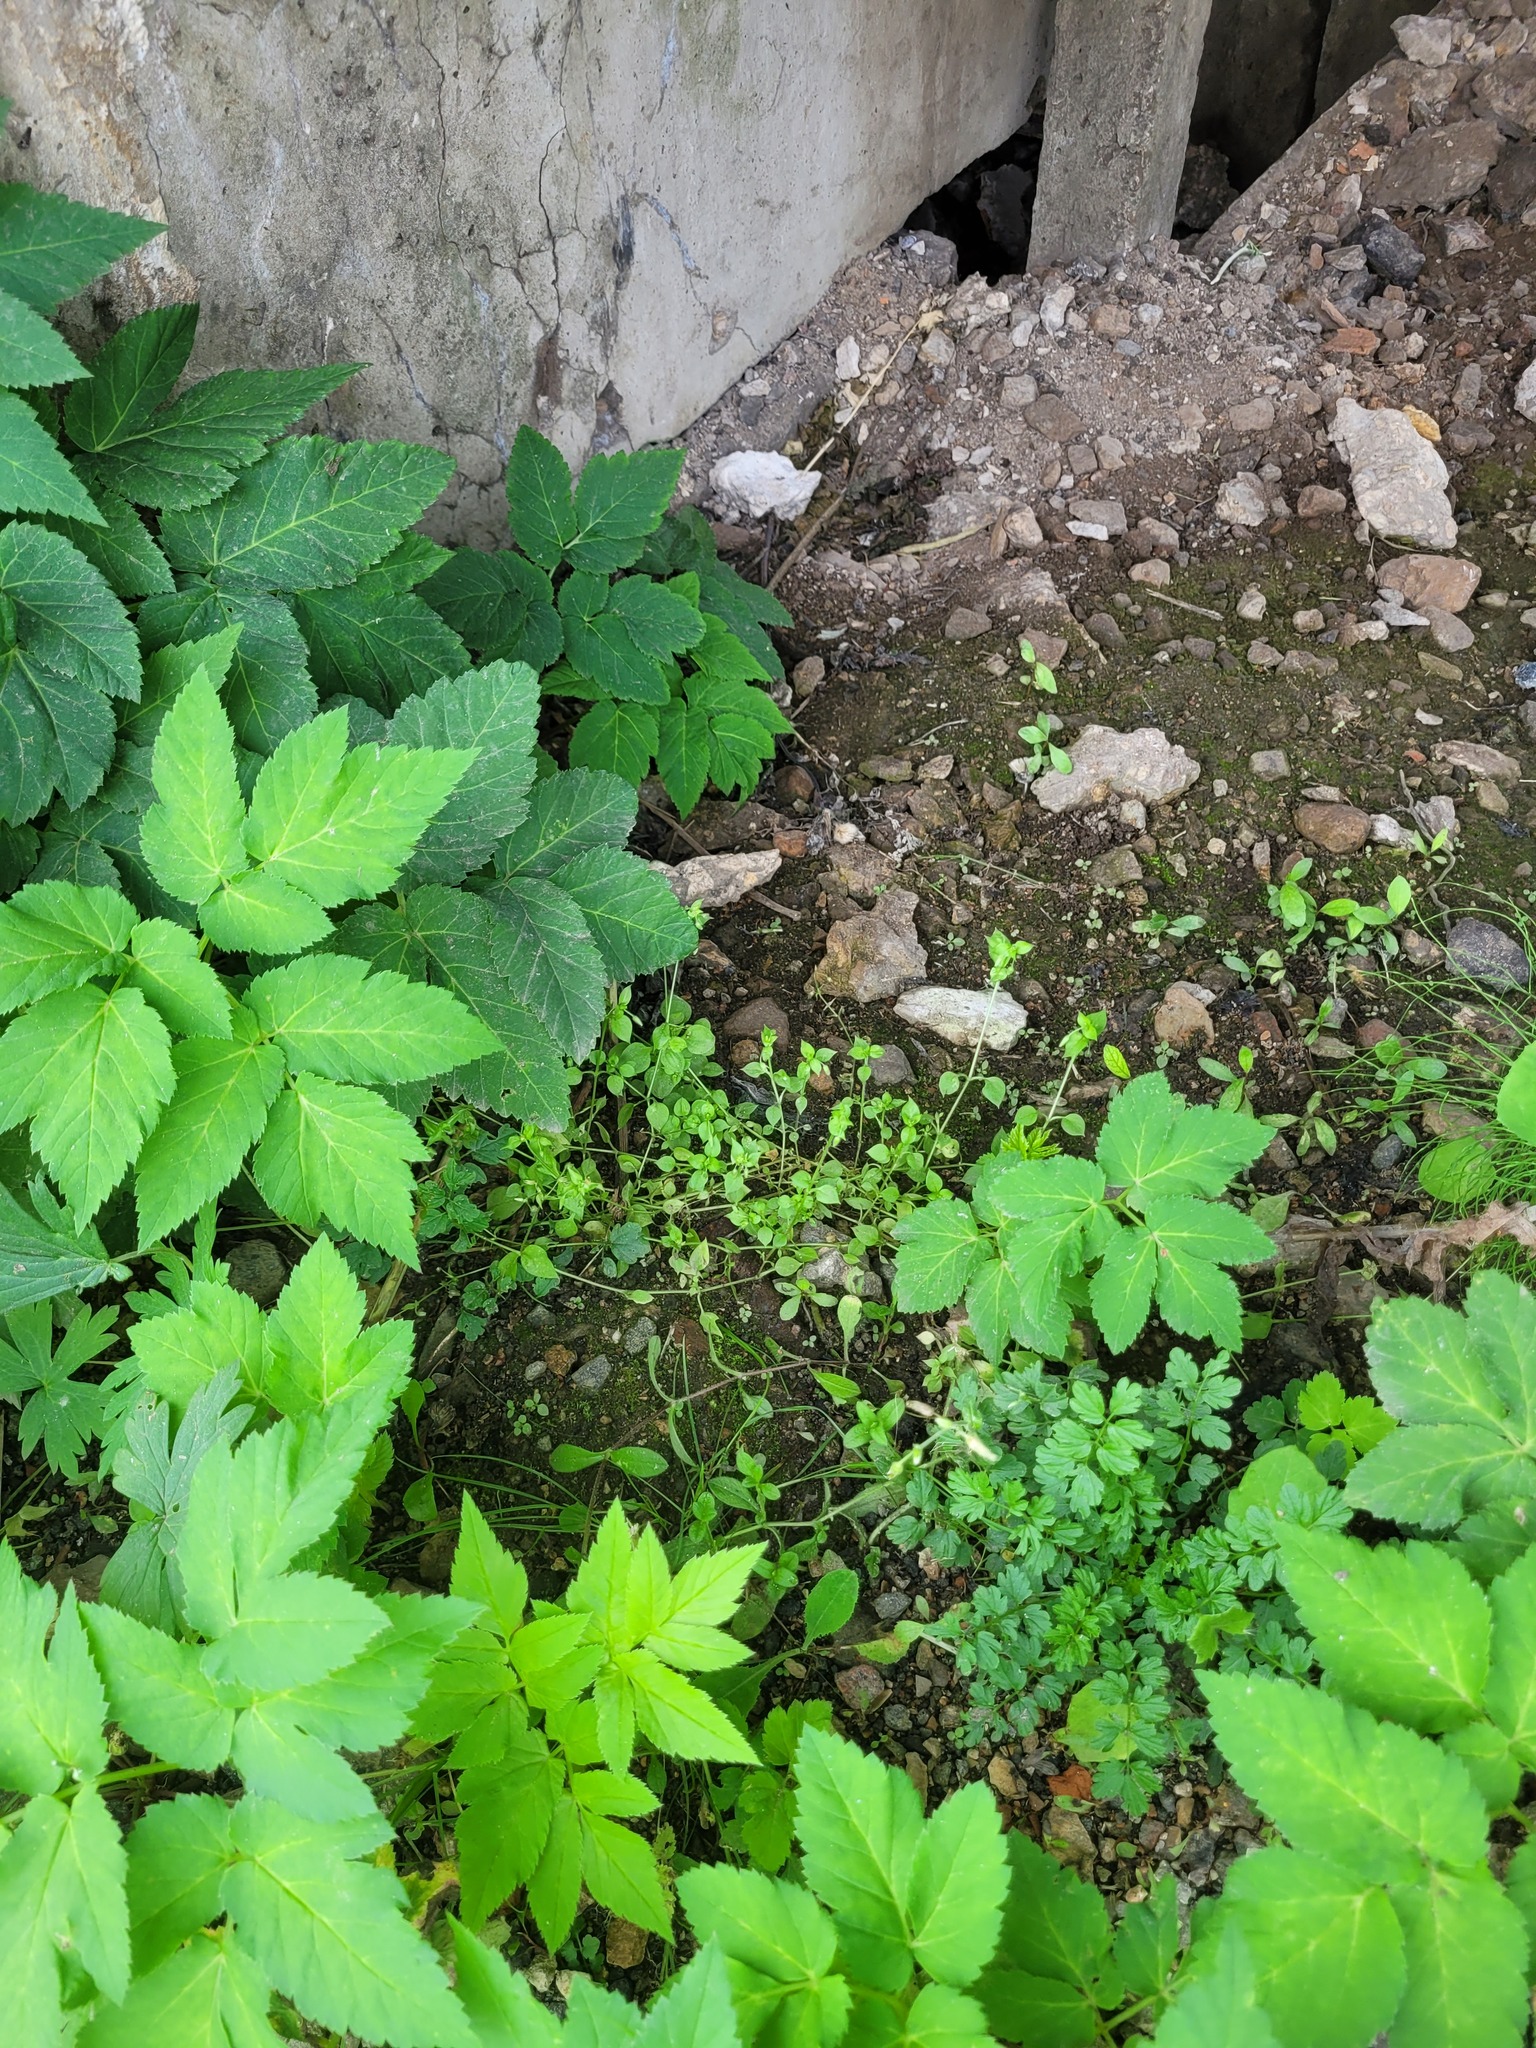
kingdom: Plantae
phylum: Tracheophyta
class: Magnoliopsida
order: Caryophyllales
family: Caryophyllaceae
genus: Stellaria
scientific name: Stellaria media
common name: Common chickweed
